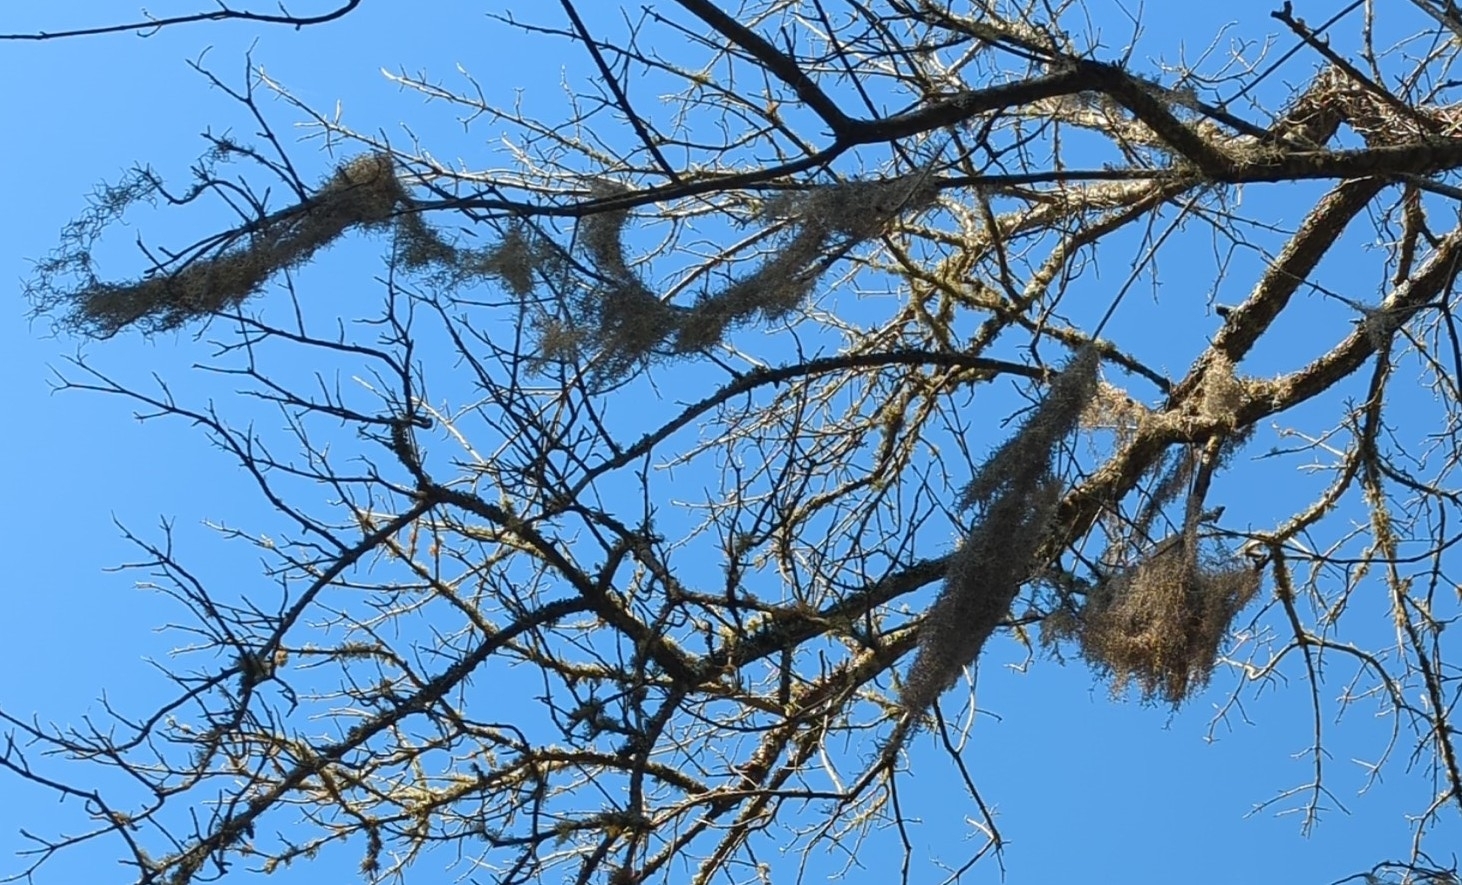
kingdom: Plantae
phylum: Tracheophyta
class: Liliopsida
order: Poales
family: Bromeliaceae
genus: Tillandsia
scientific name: Tillandsia usneoides
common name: Spanish moss
